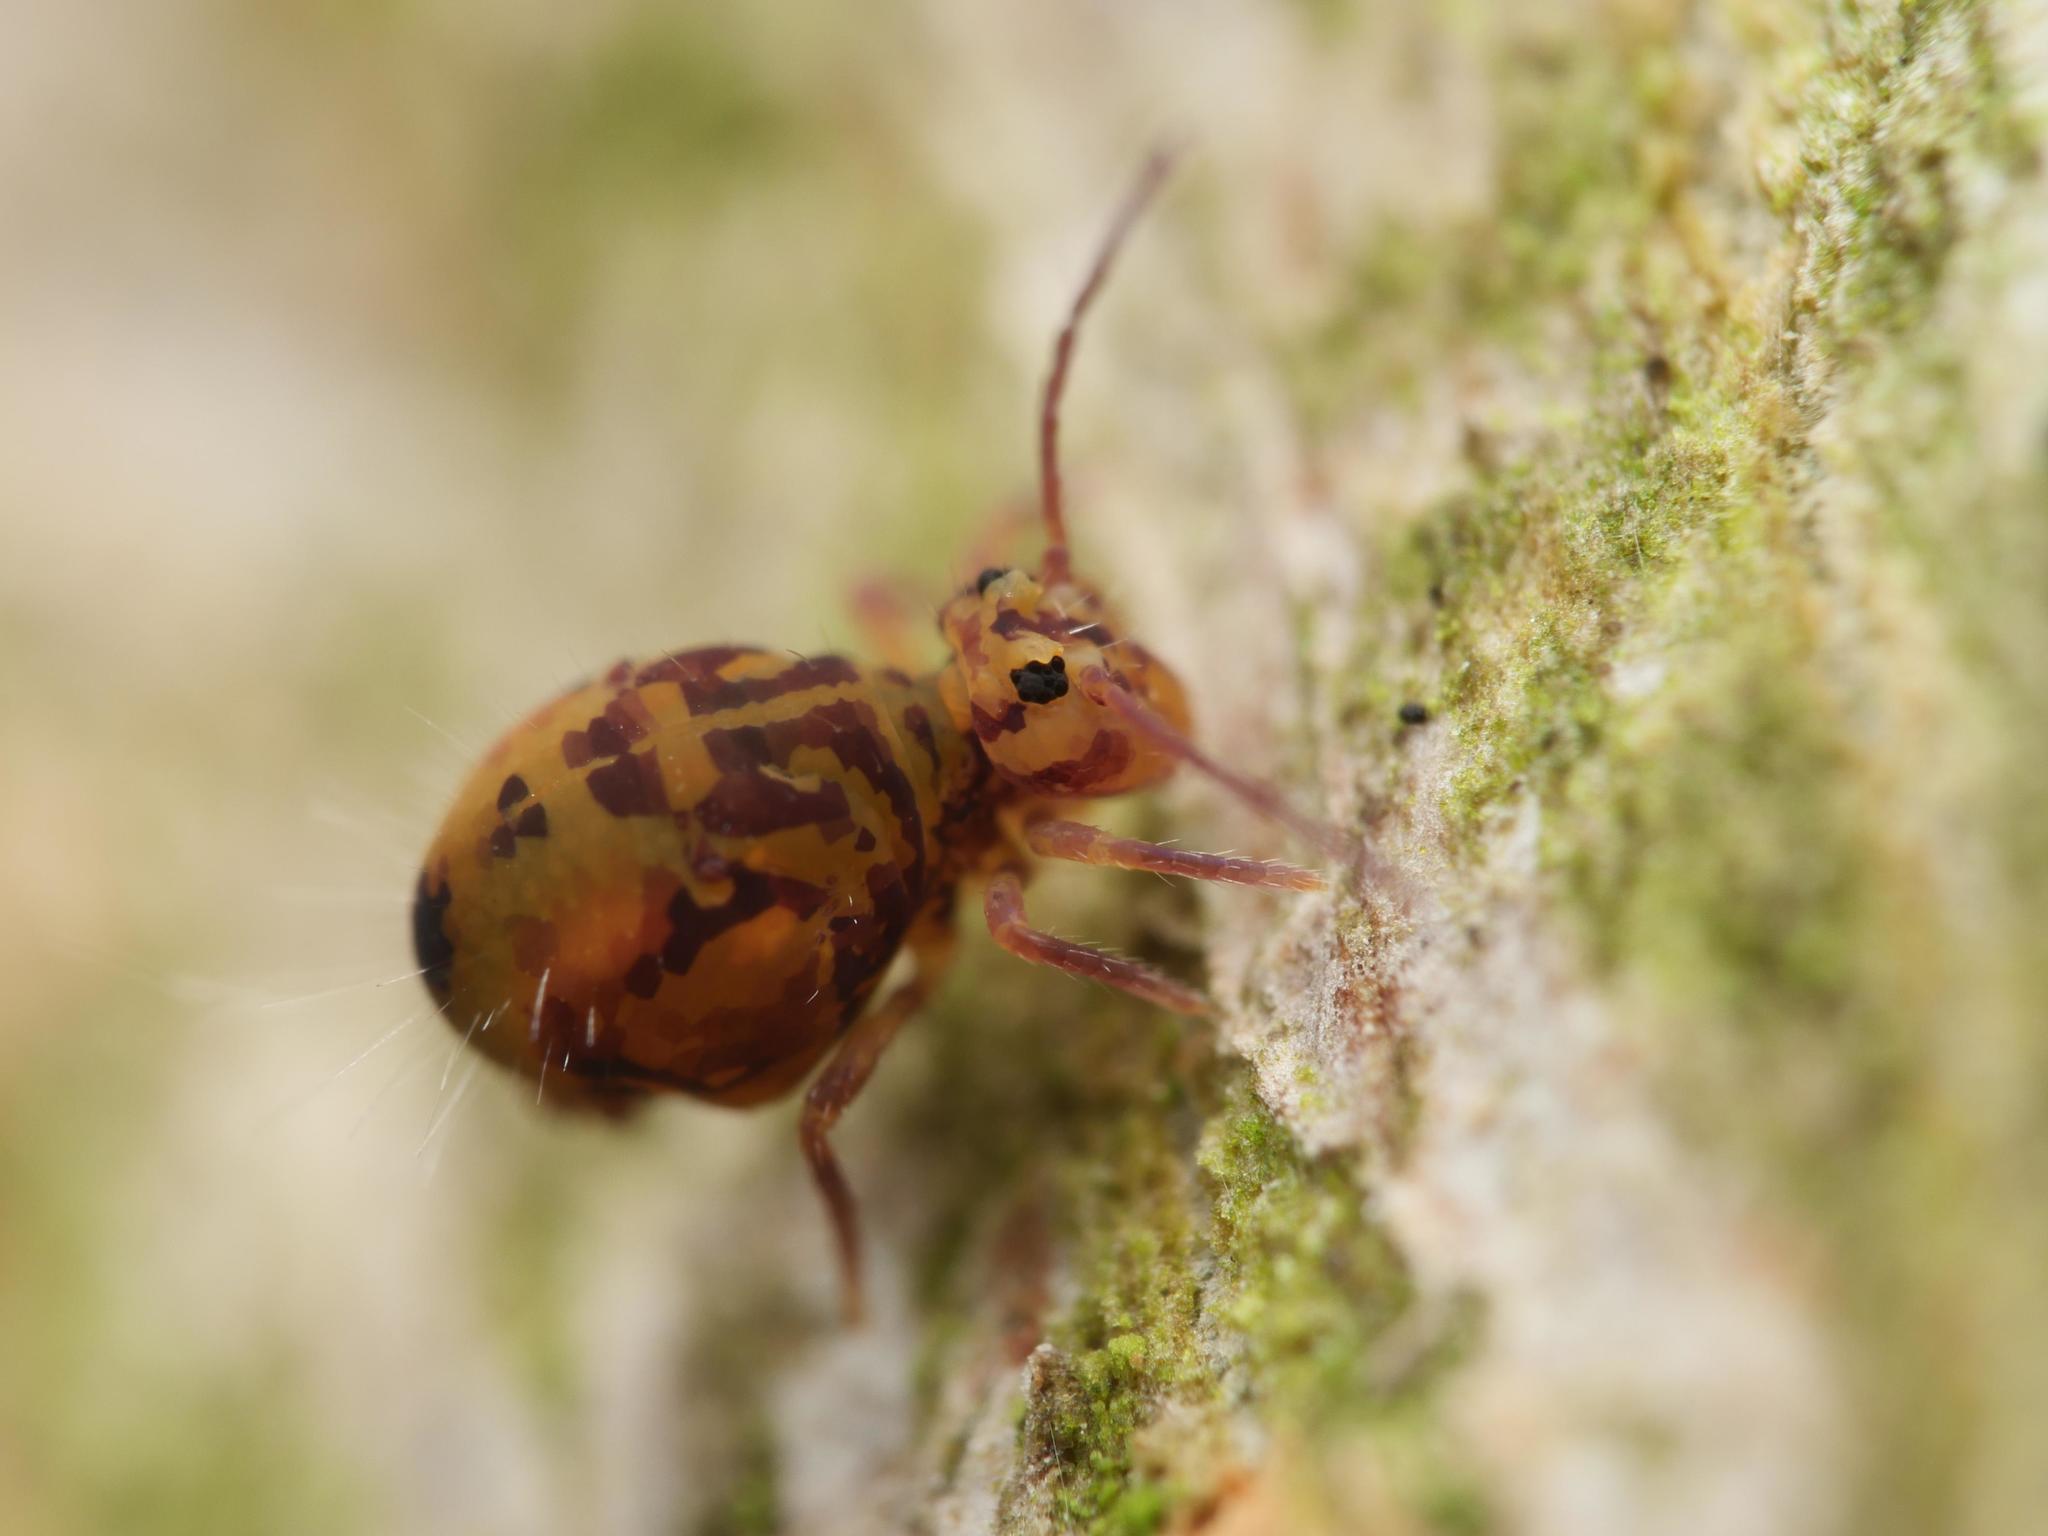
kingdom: Animalia
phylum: Arthropoda
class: Collembola
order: Symphypleona
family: Dicyrtomidae
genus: Dicyrtomina
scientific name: Dicyrtomina ornata
